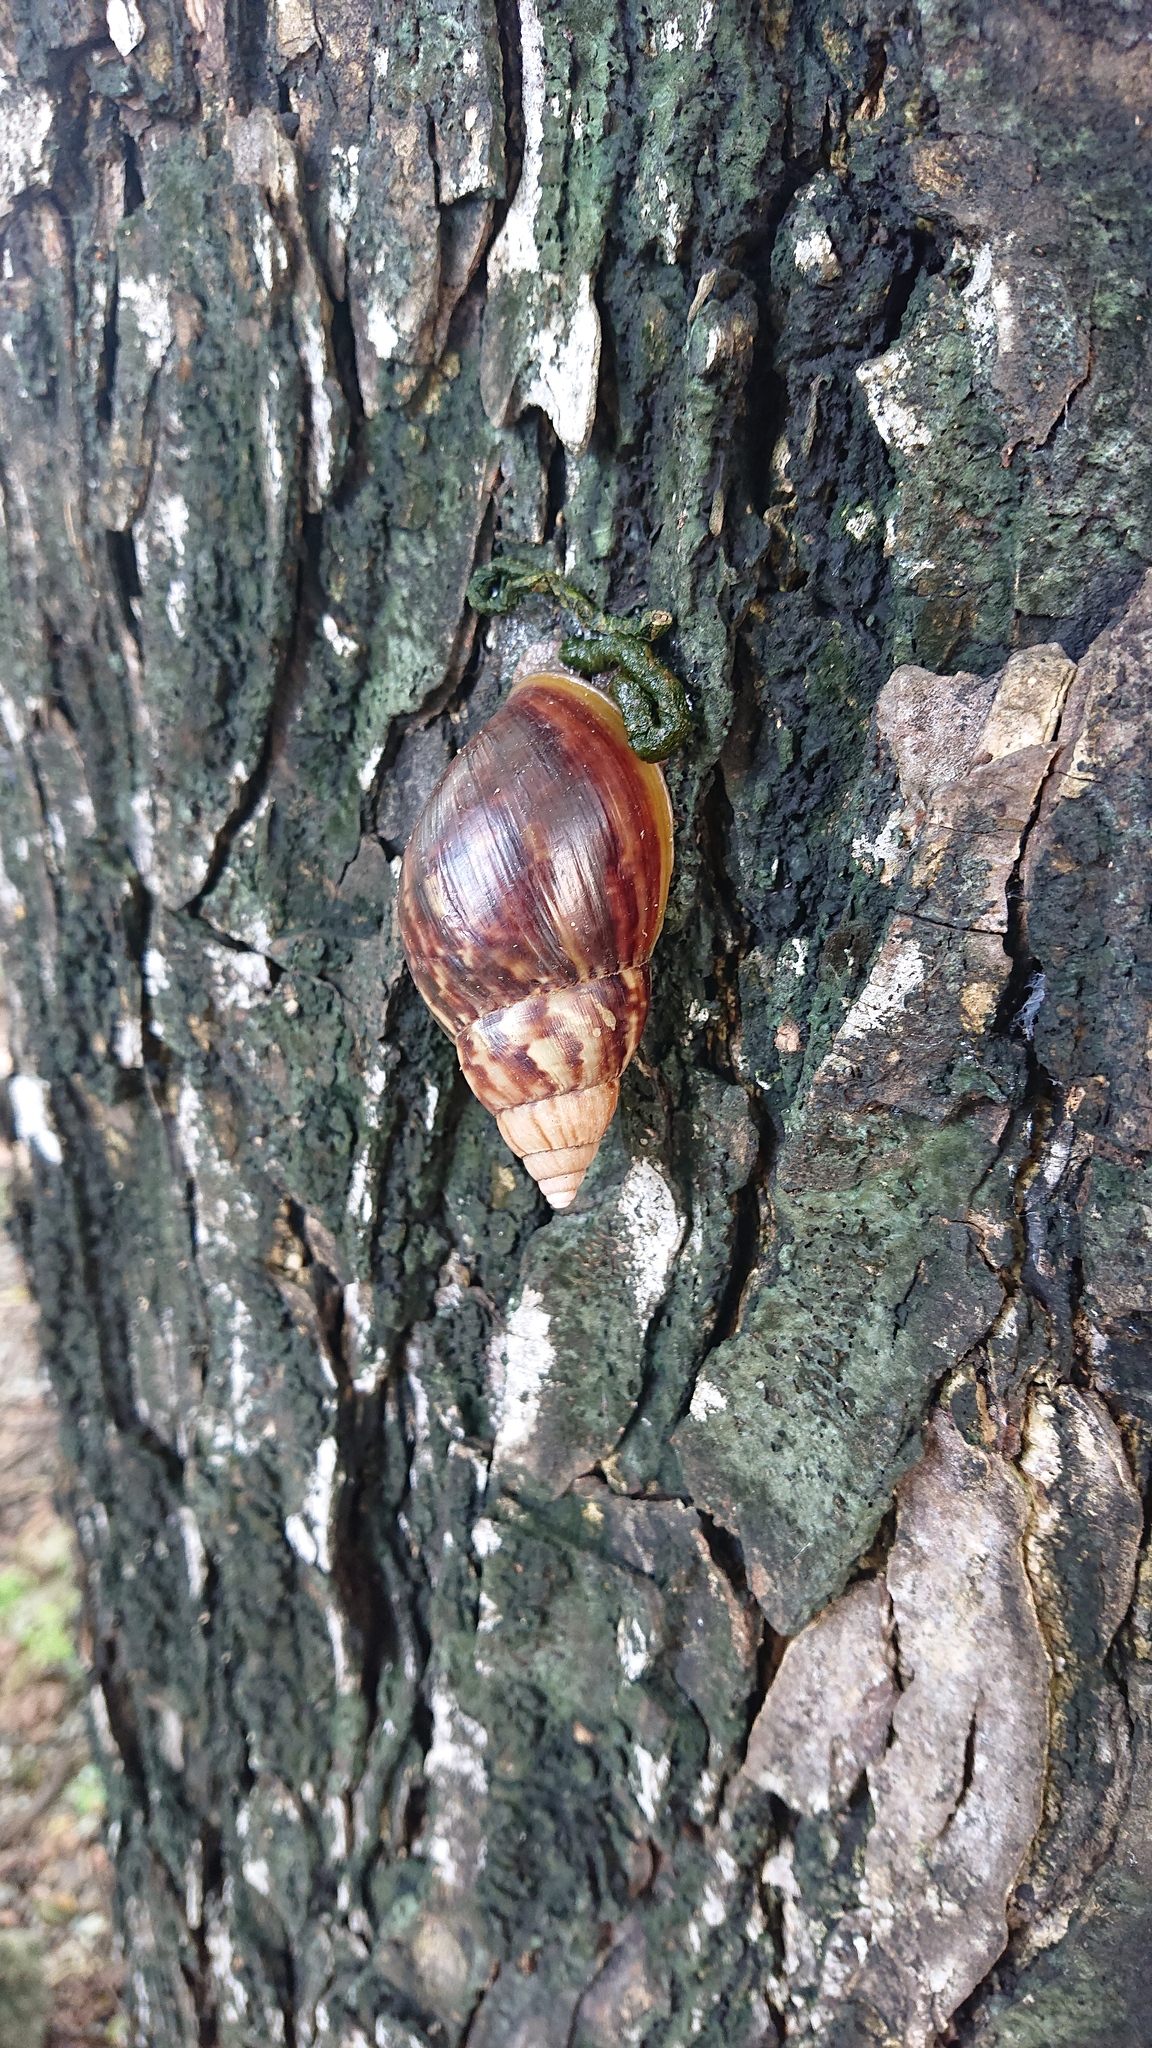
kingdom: Animalia
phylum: Mollusca
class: Gastropoda
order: Stylommatophora
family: Achatinidae
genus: Lissachatina
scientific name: Lissachatina fulica
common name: Giant african snail
